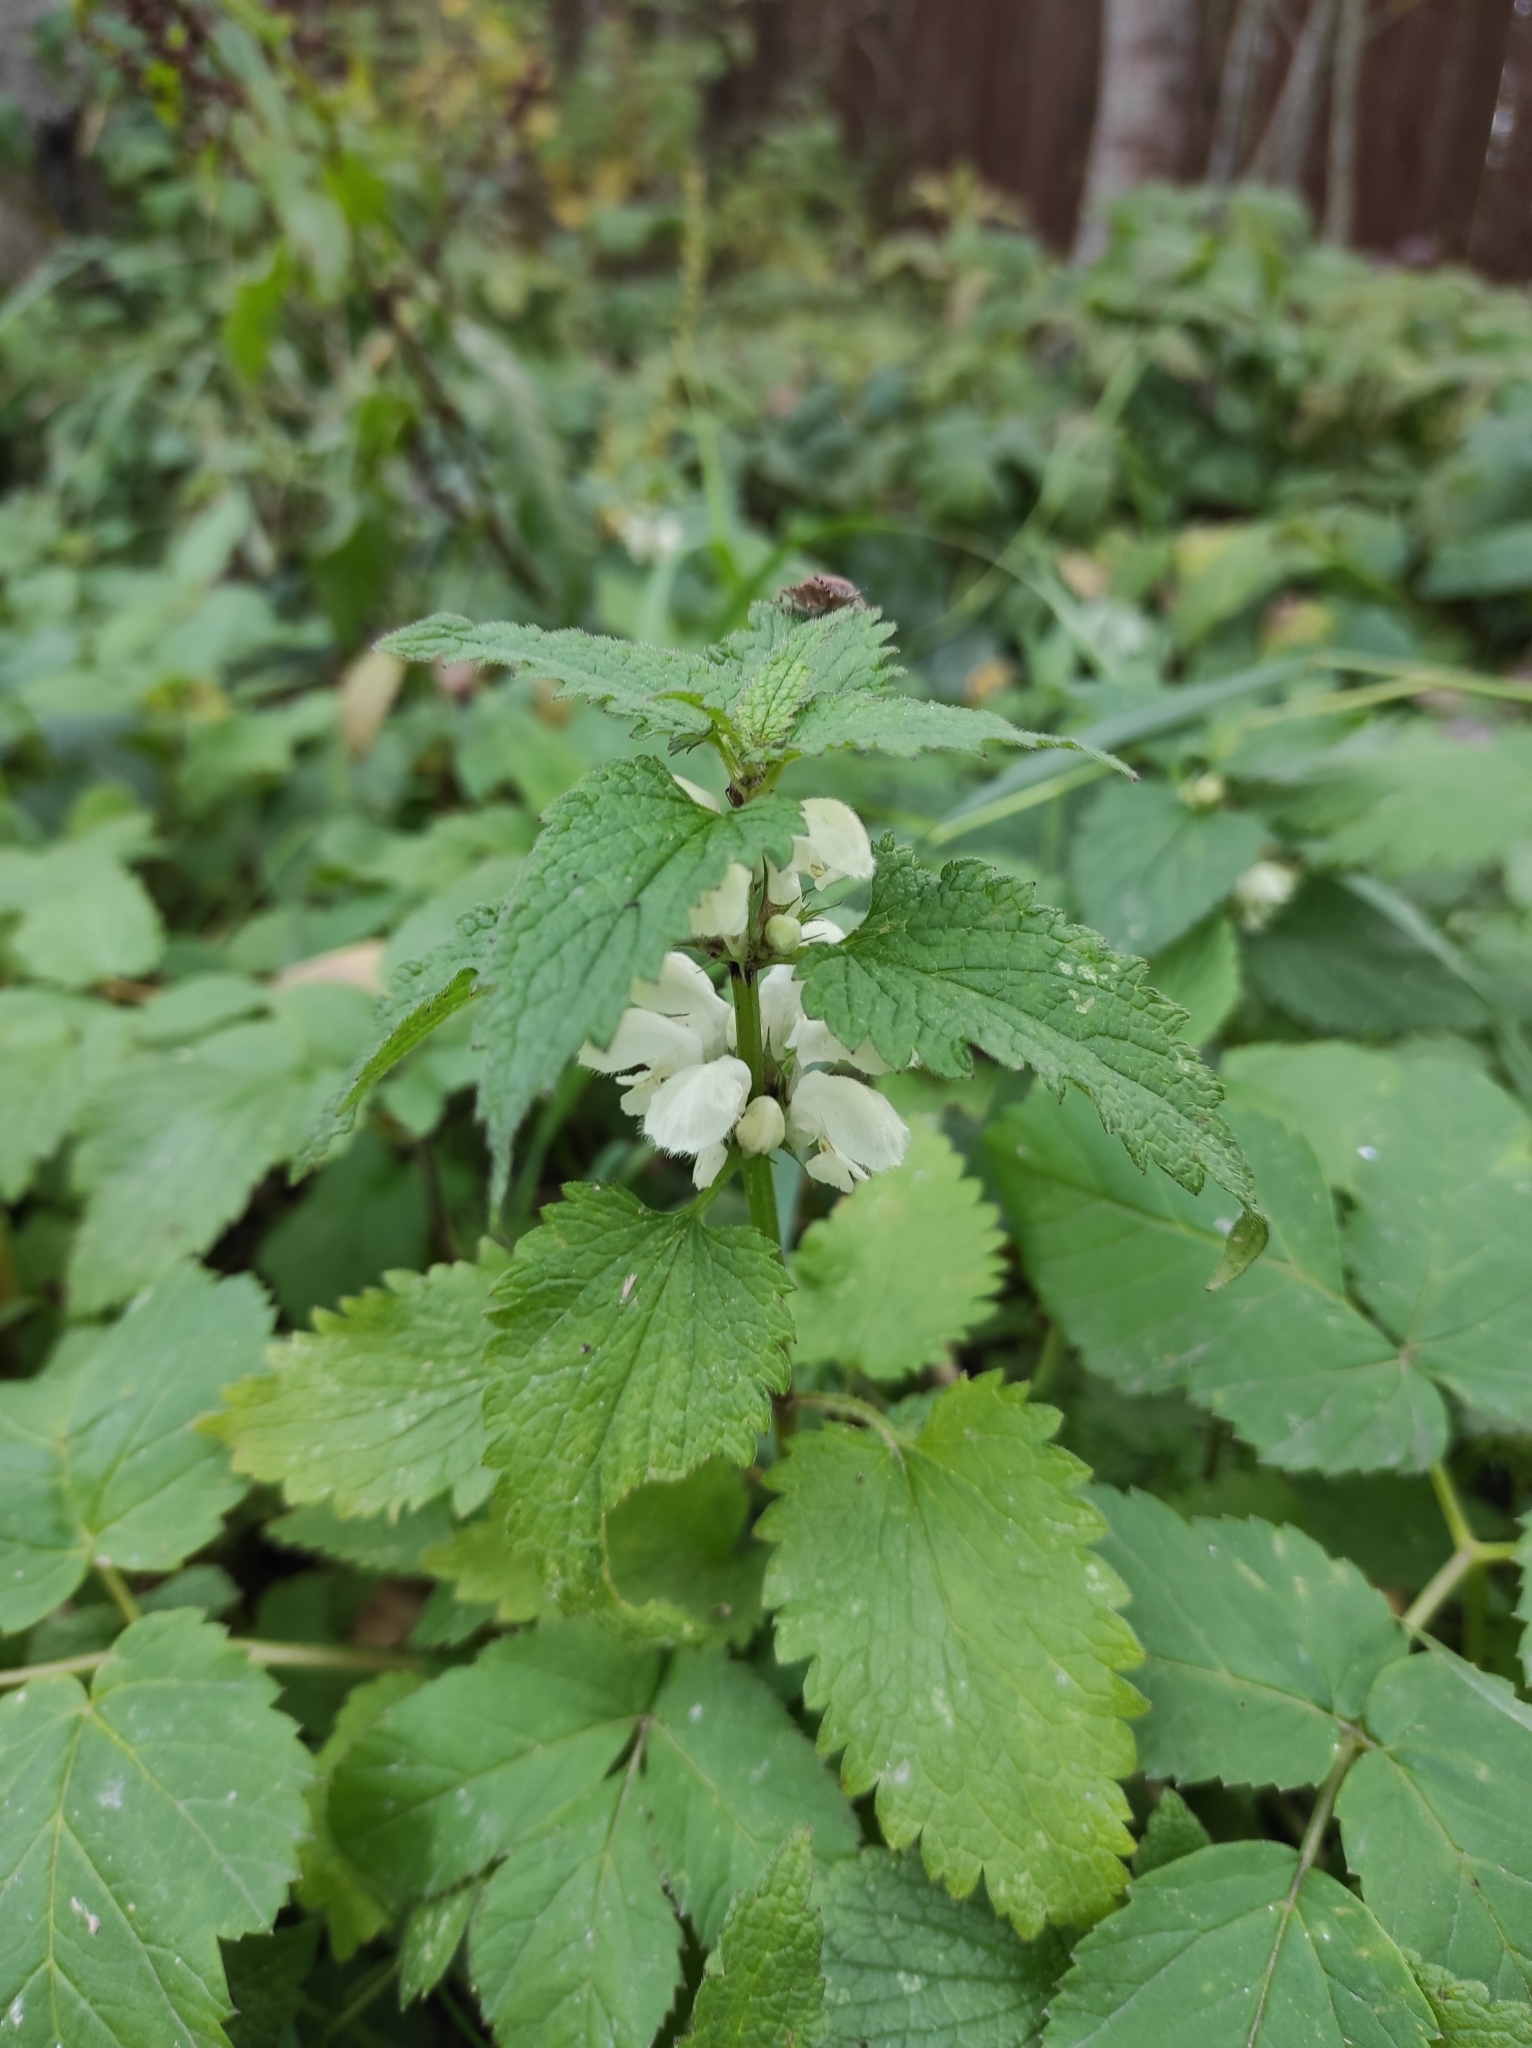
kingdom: Plantae
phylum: Tracheophyta
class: Magnoliopsida
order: Lamiales
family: Lamiaceae
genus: Lamium
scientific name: Lamium album
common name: White dead-nettle
